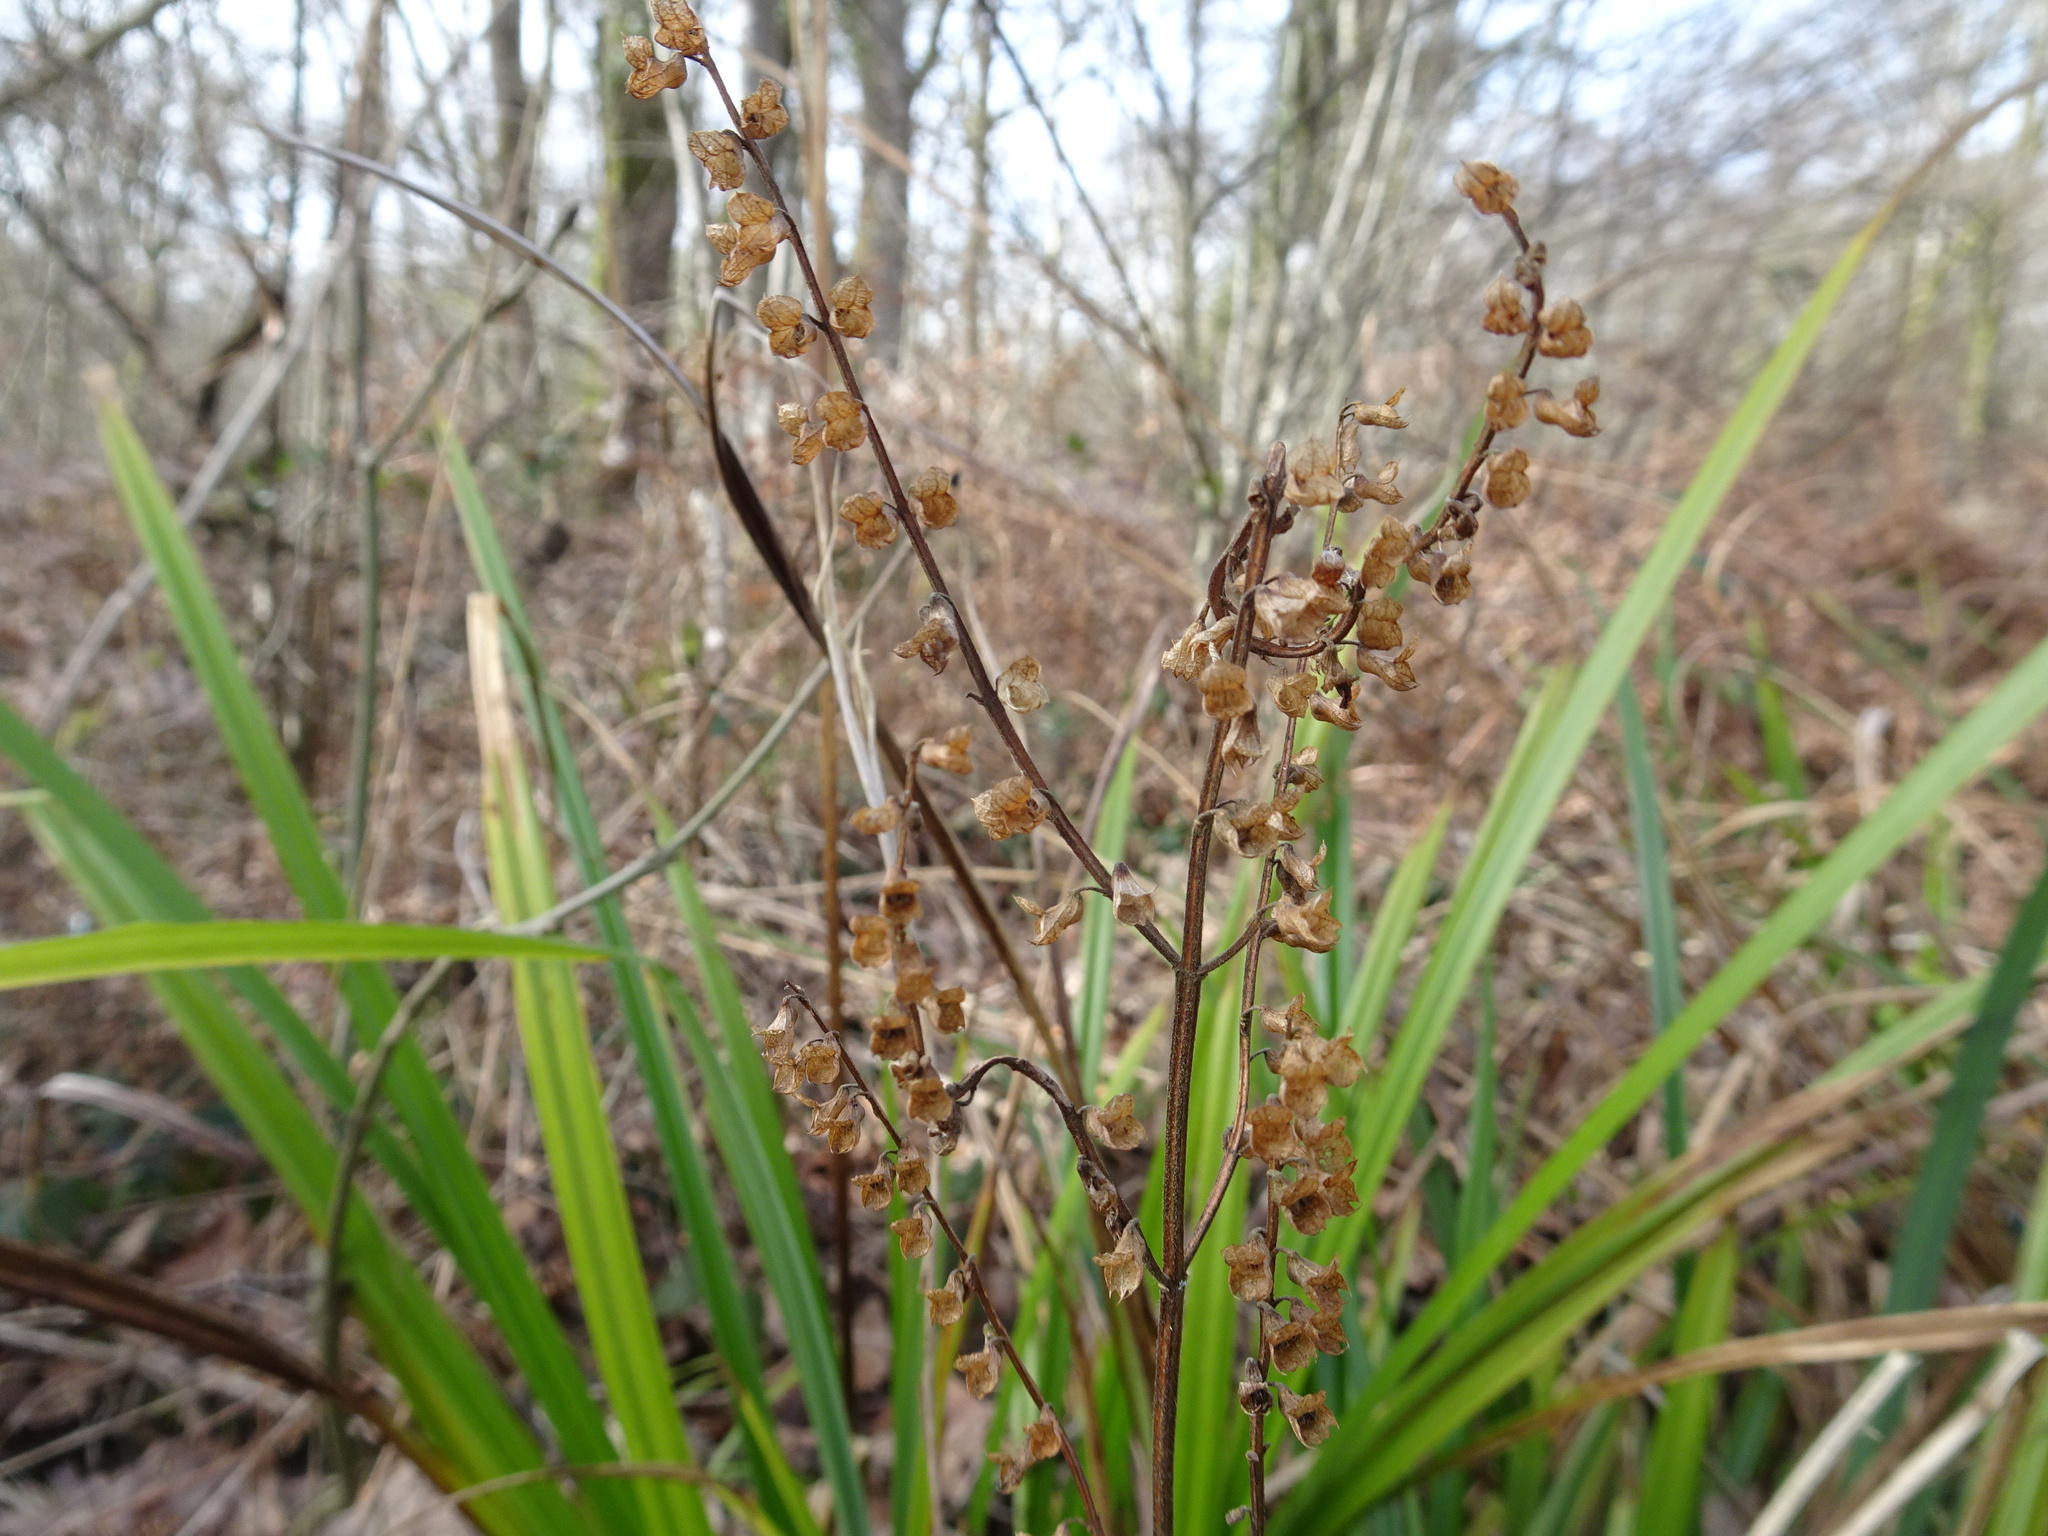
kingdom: Plantae
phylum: Tracheophyta
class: Magnoliopsida
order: Lamiales
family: Lamiaceae
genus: Teucrium
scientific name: Teucrium scorodonia
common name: Woodland germander
